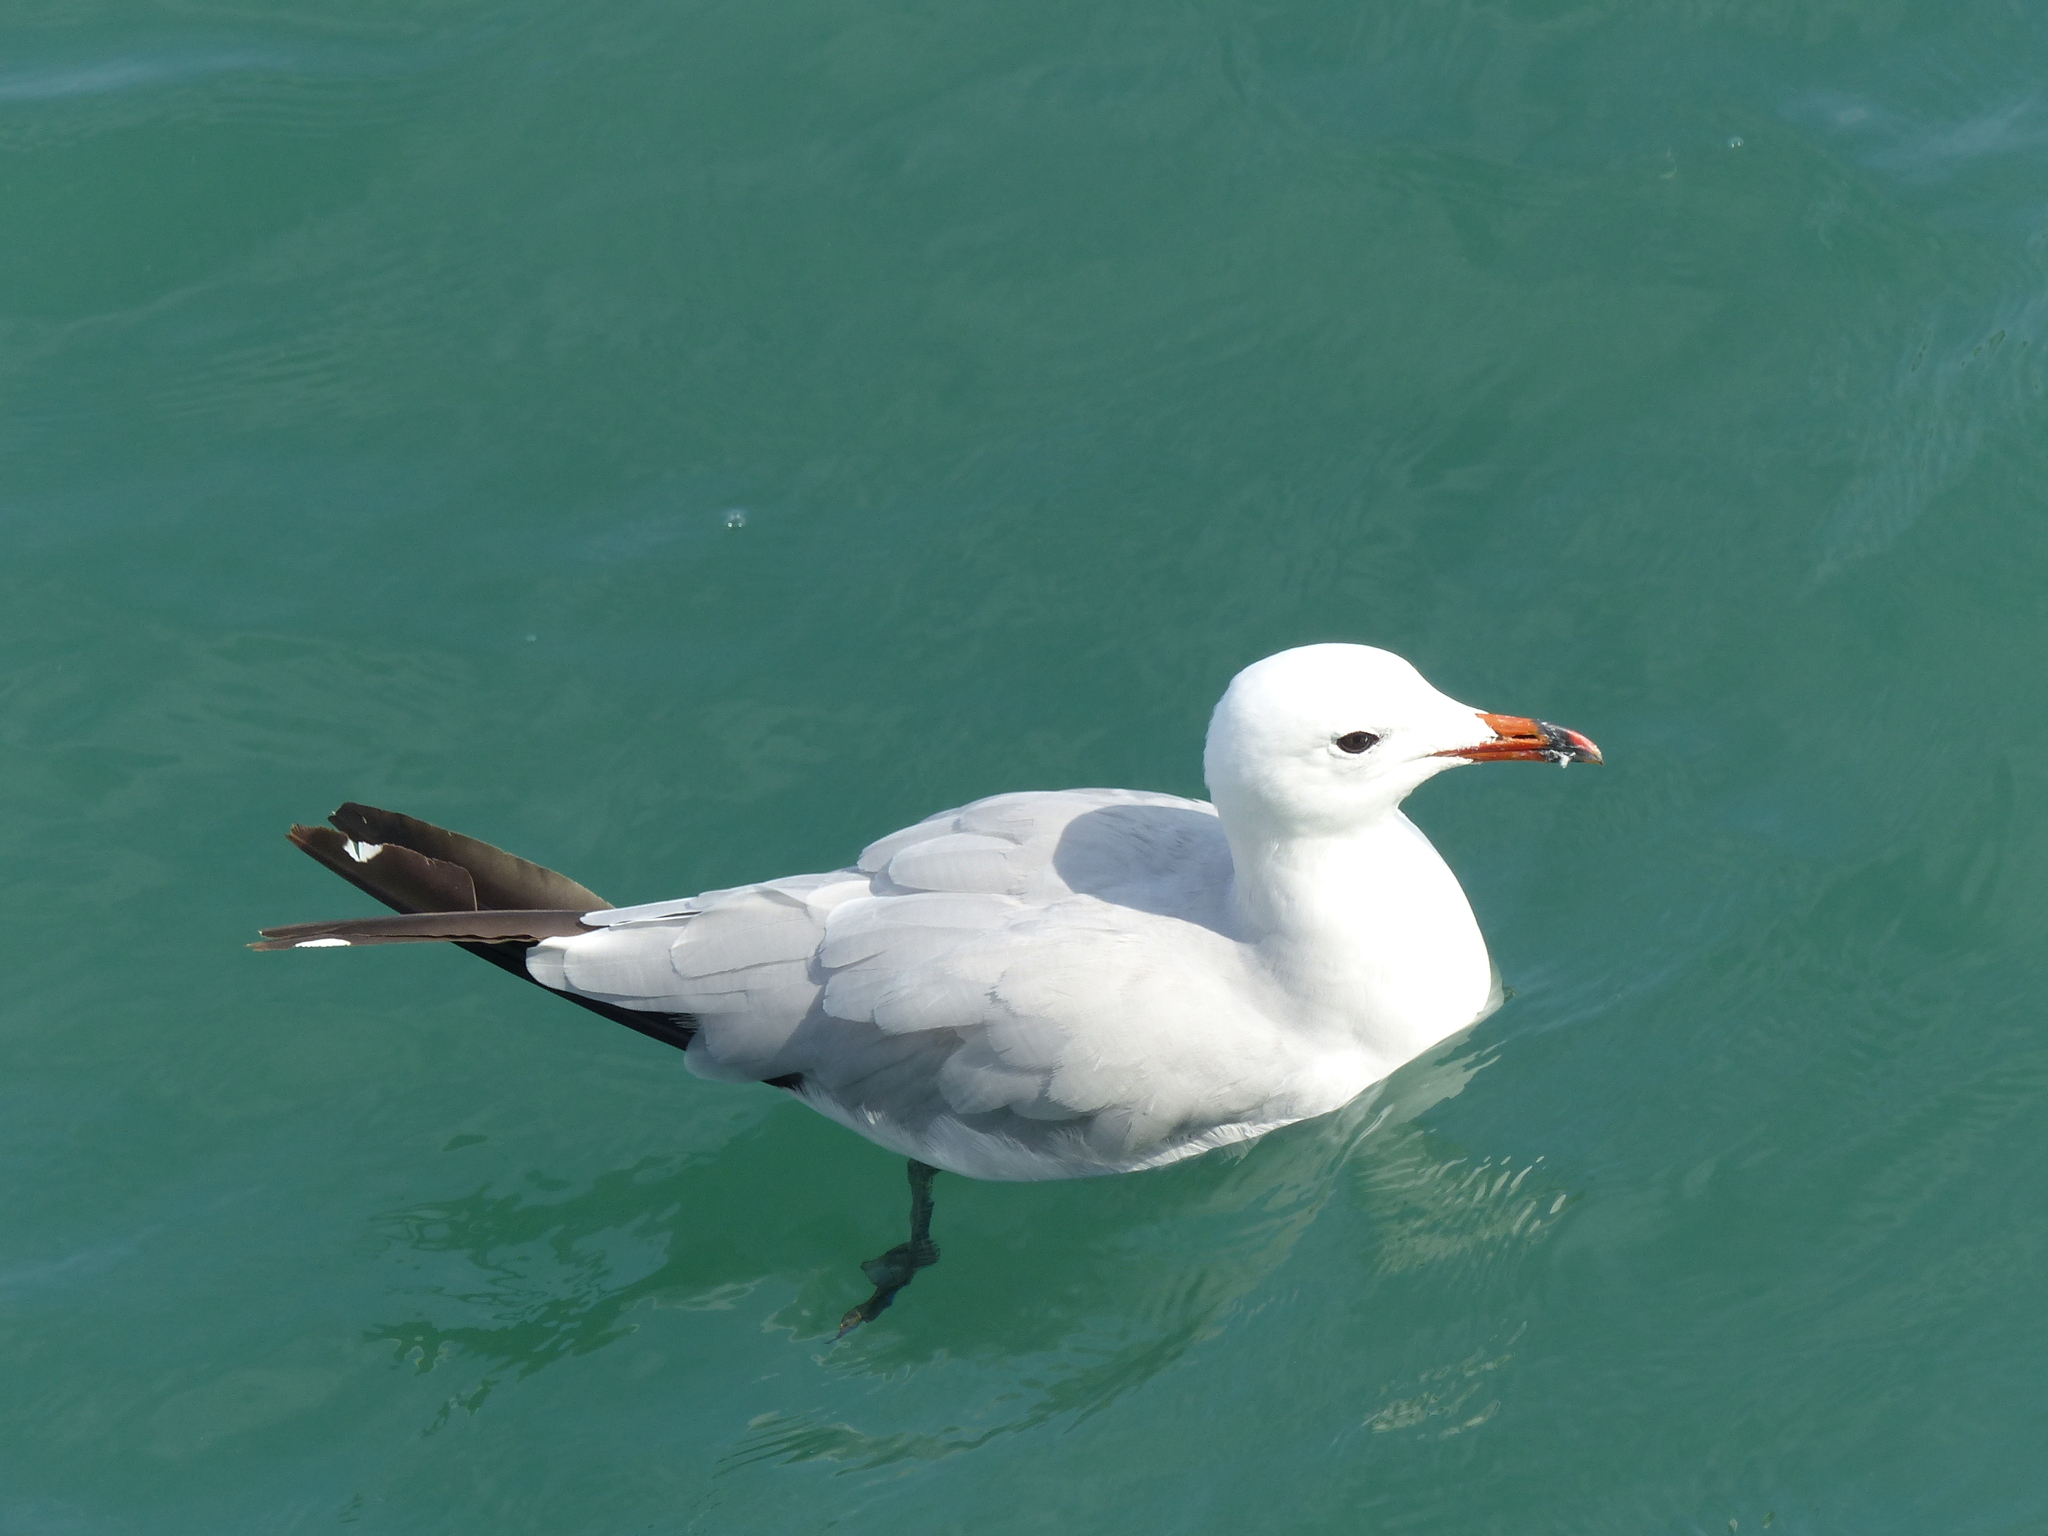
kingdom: Animalia
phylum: Chordata
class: Aves
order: Charadriiformes
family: Laridae
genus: Ichthyaetus
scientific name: Ichthyaetus audouinii
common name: Audouin's gull
